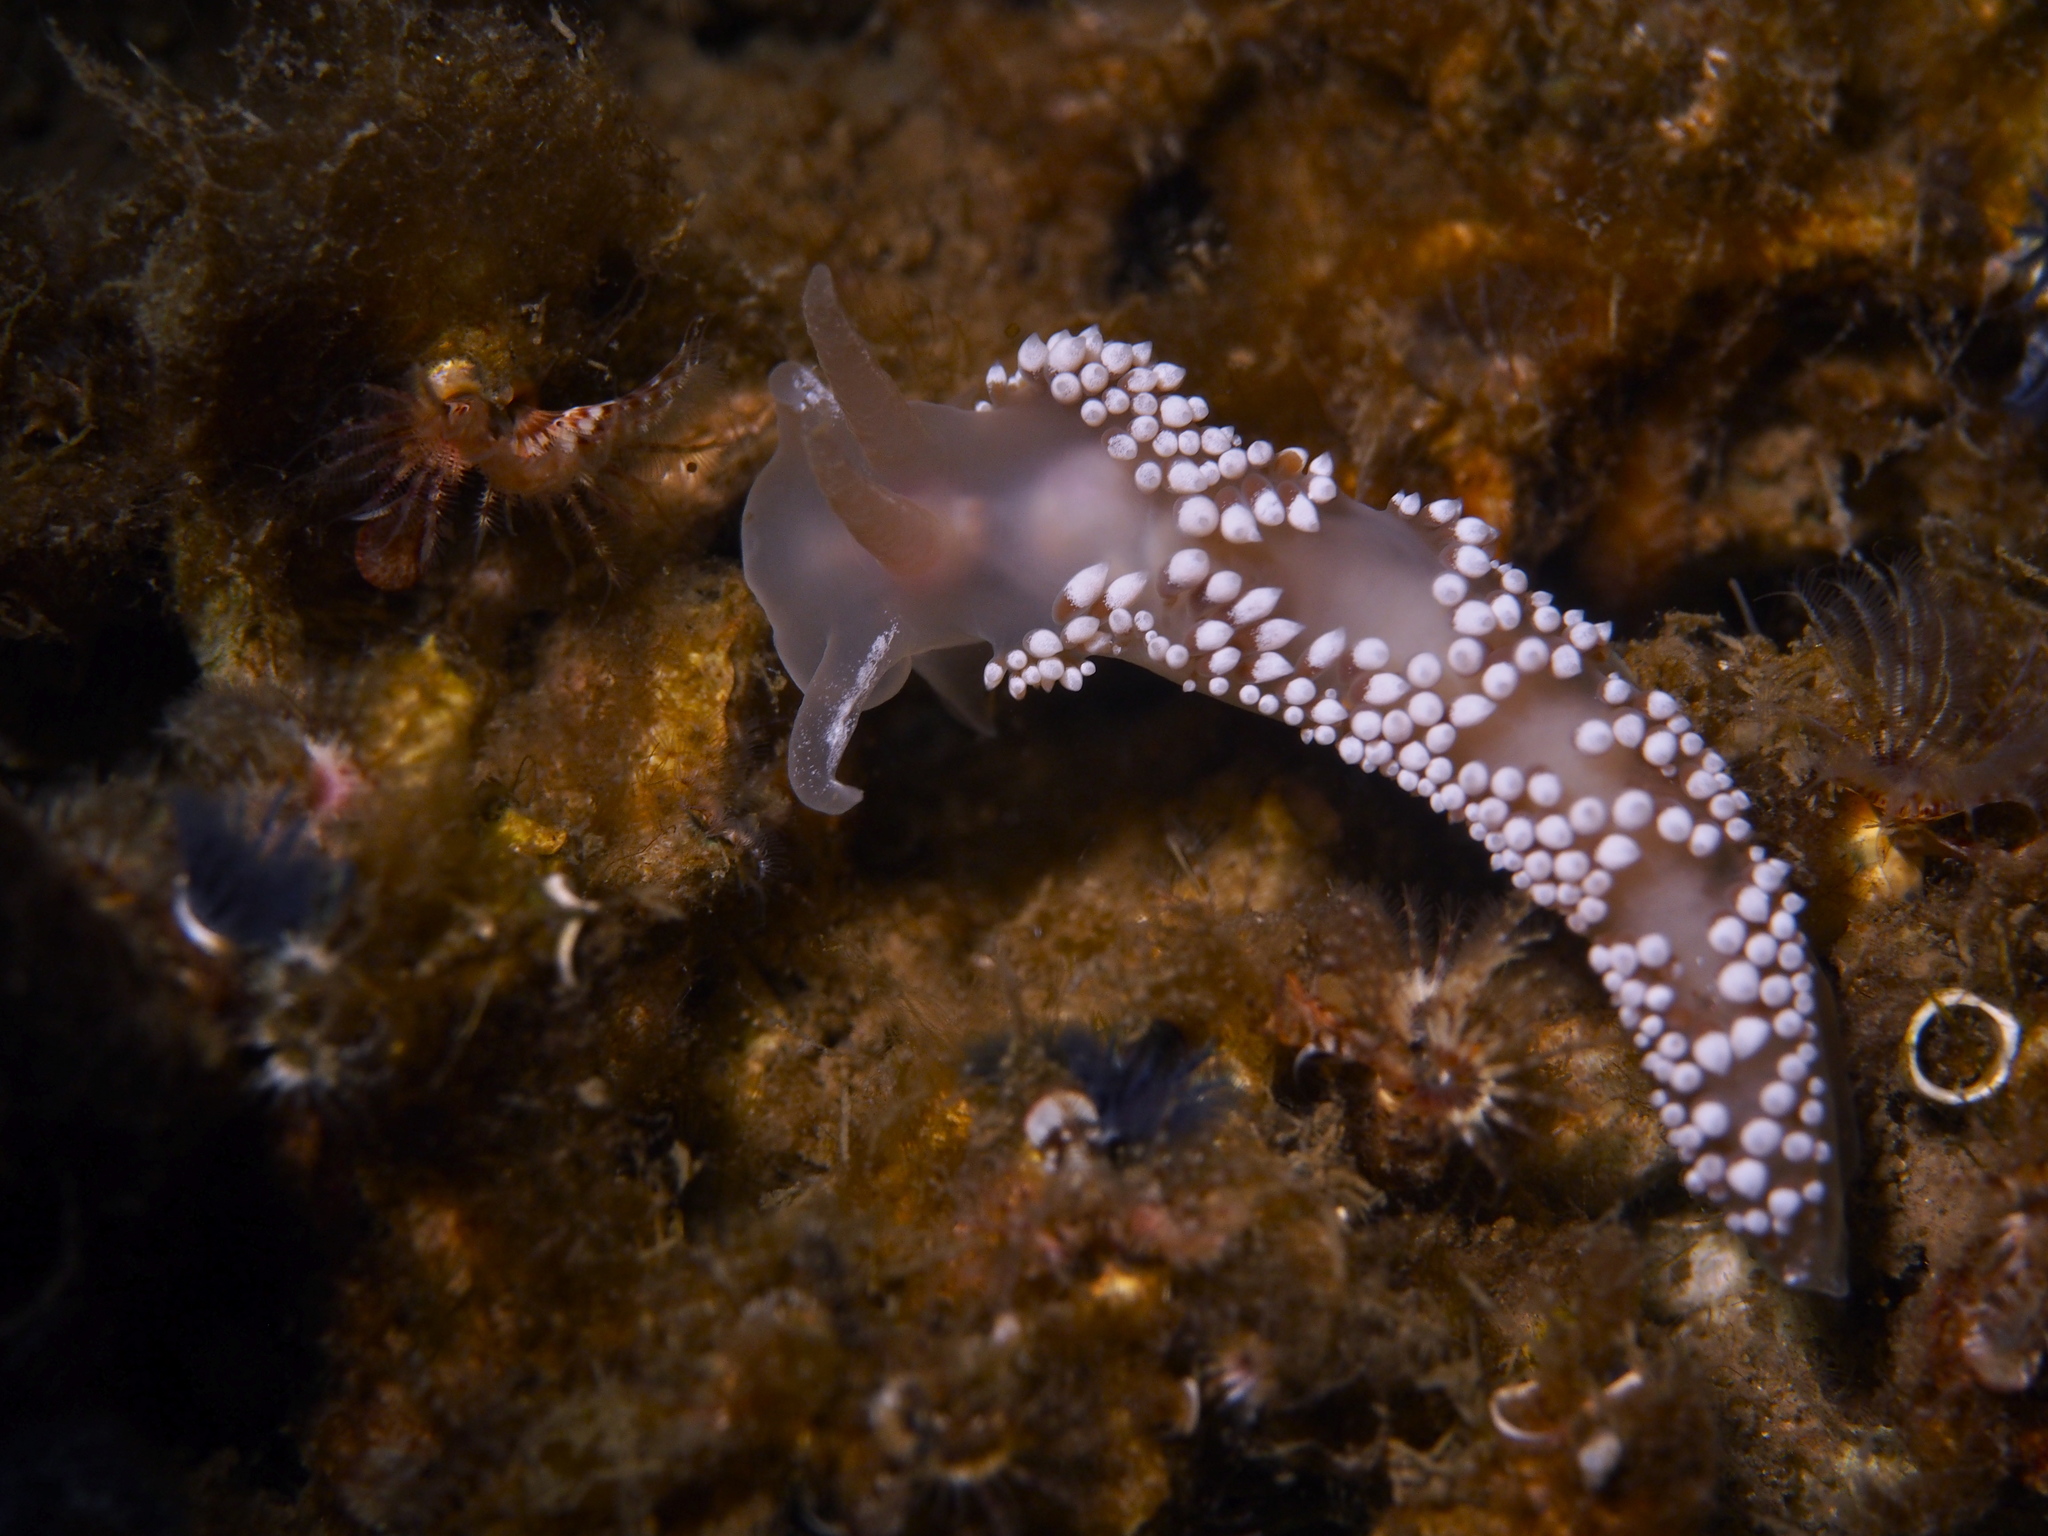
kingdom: Animalia
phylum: Mollusca
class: Gastropoda
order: Nudibranchia
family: Coryphellidae
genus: Coryphella
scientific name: Coryphella verrucosa
